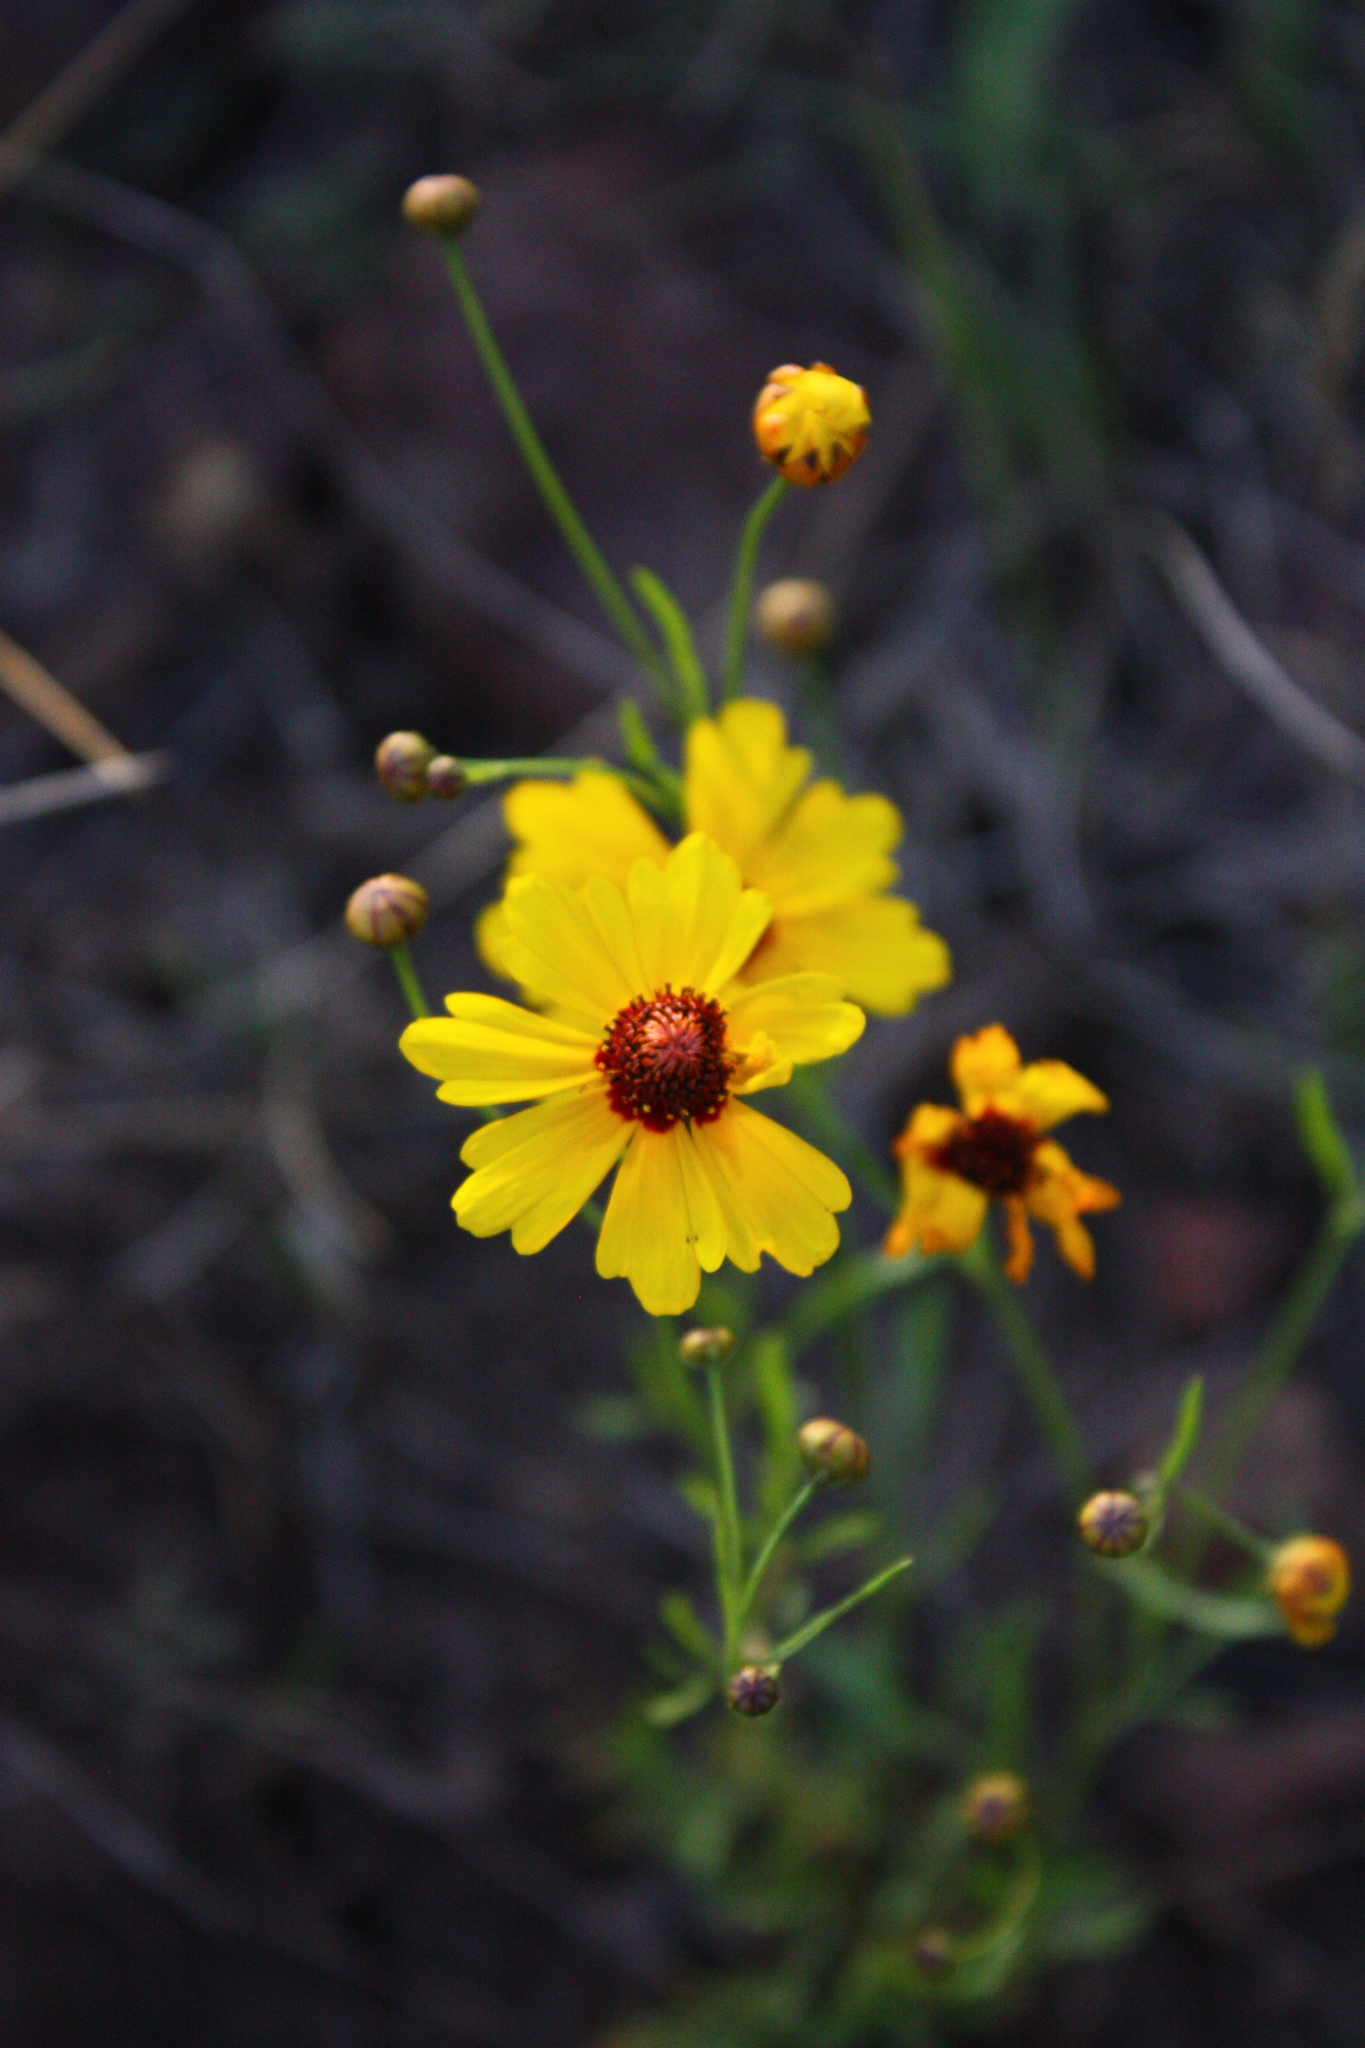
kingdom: Plantae
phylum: Tracheophyta
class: Magnoliopsida
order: Asterales
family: Asteraceae
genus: Coreopsis
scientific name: Coreopsis tinctoria
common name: Garden tickseed
